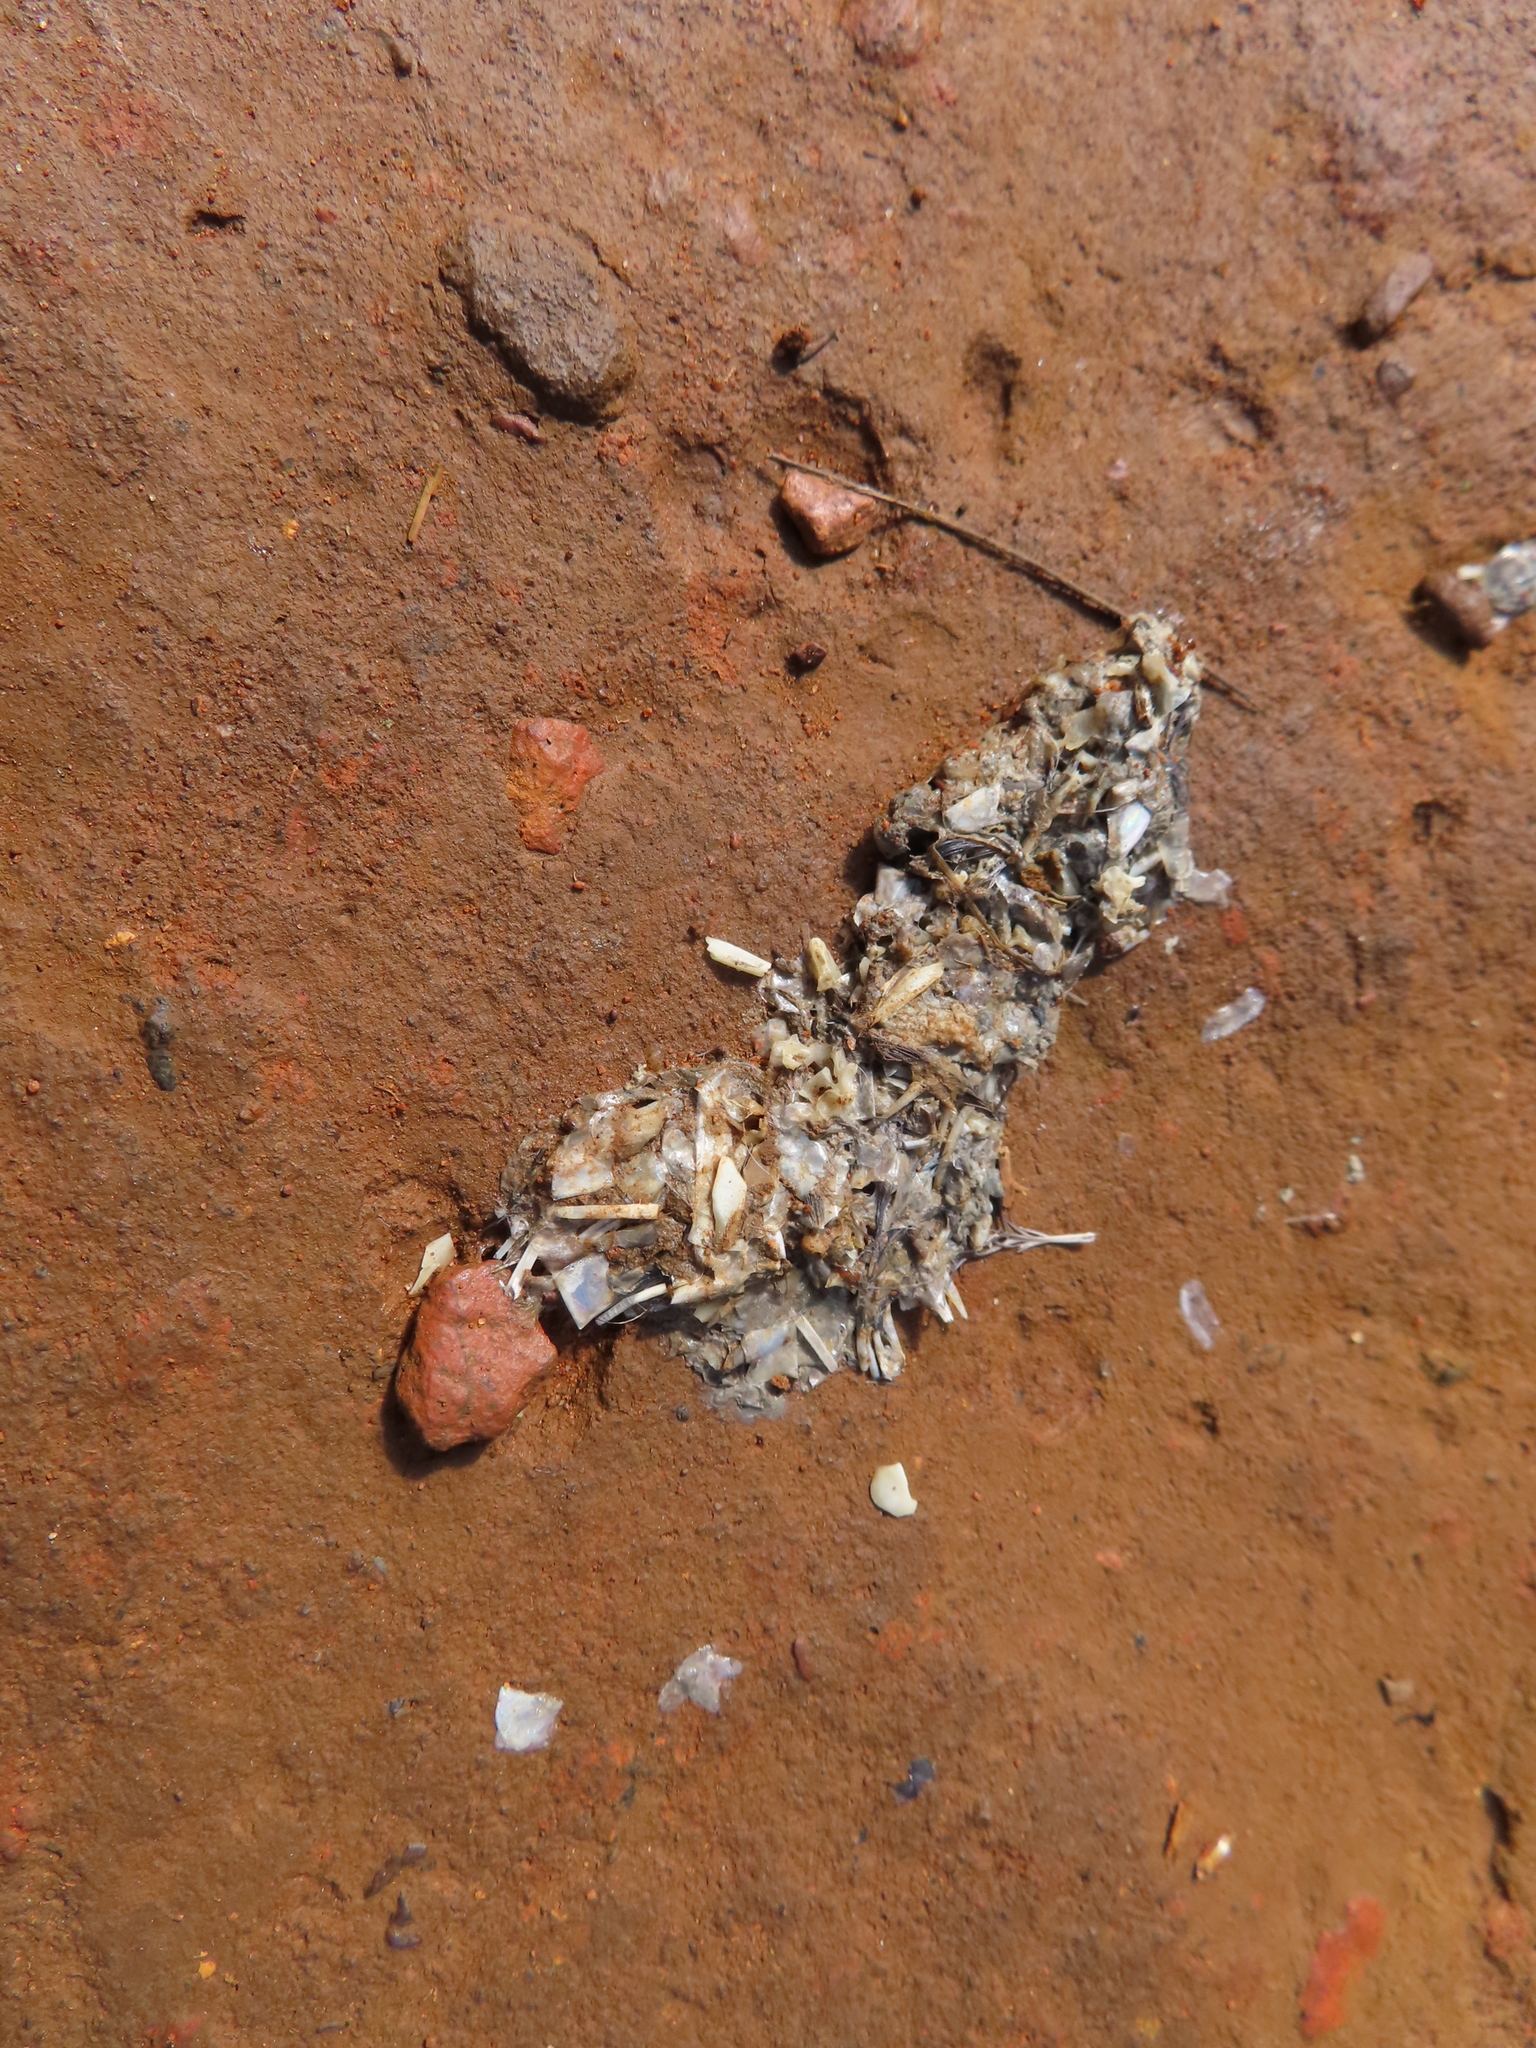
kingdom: Animalia
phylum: Chordata
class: Mammalia
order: Carnivora
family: Mustelidae
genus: Aonyx
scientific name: Aonyx capensis
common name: African clawless otter
